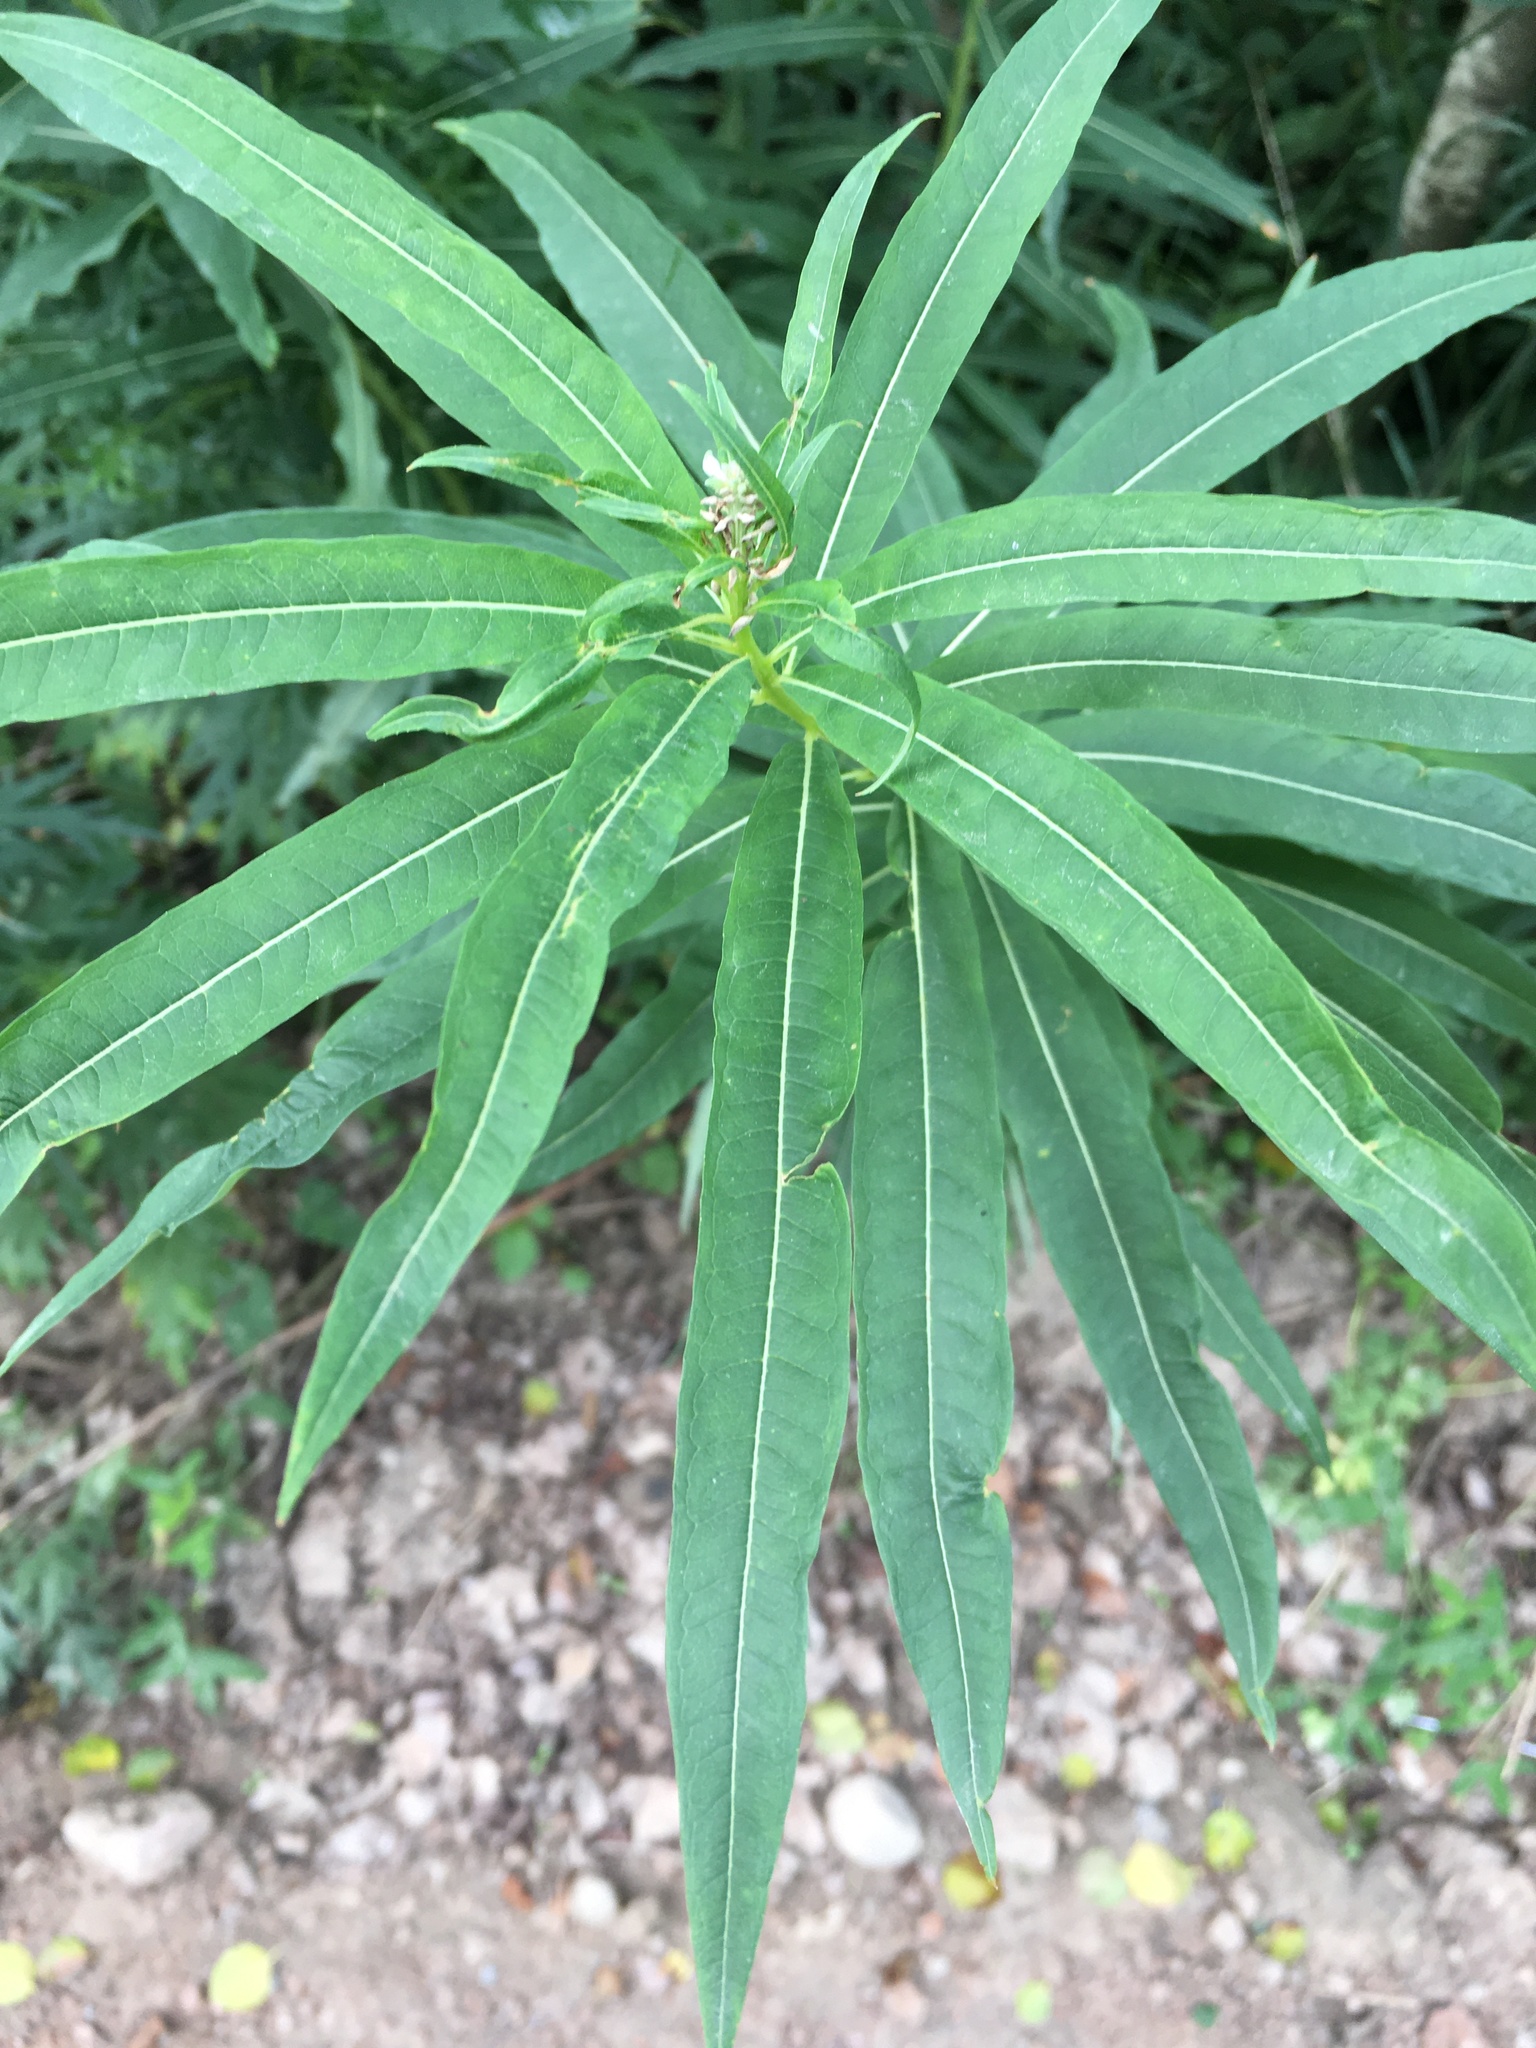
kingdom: Plantae
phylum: Tracheophyta
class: Magnoliopsida
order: Myrtales
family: Onagraceae
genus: Chamaenerion
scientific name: Chamaenerion angustifolium
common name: Fireweed
